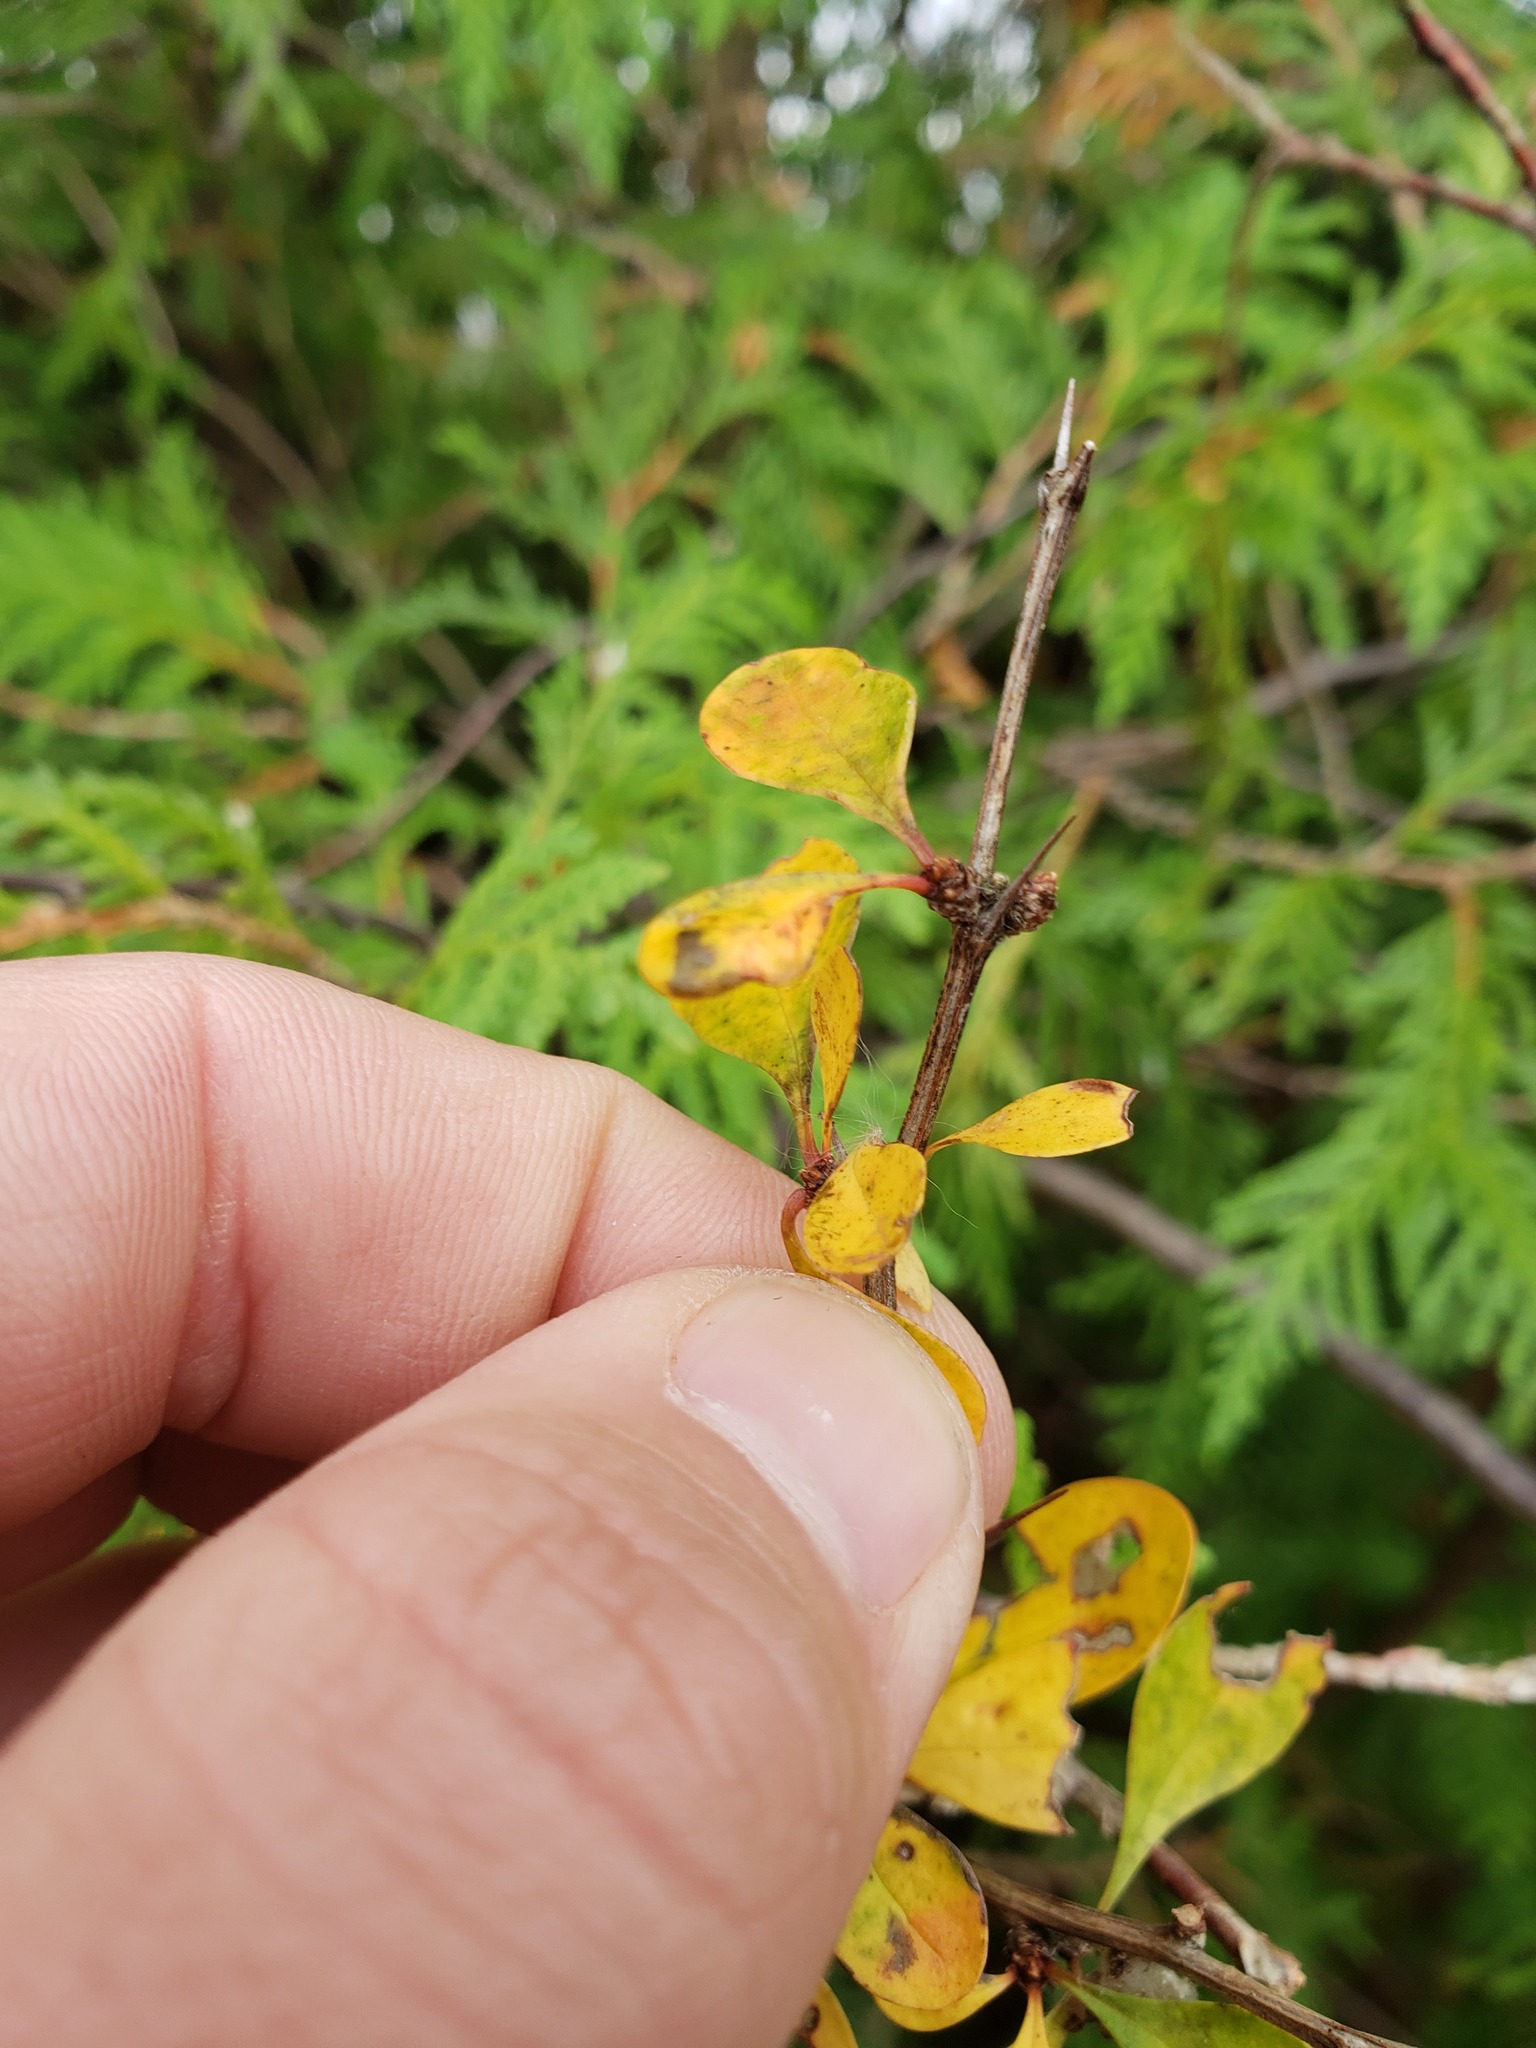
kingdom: Plantae
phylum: Tracheophyta
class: Magnoliopsida
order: Ranunculales
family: Berberidaceae
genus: Berberis
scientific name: Berberis thunbergii
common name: Japanese barberry
